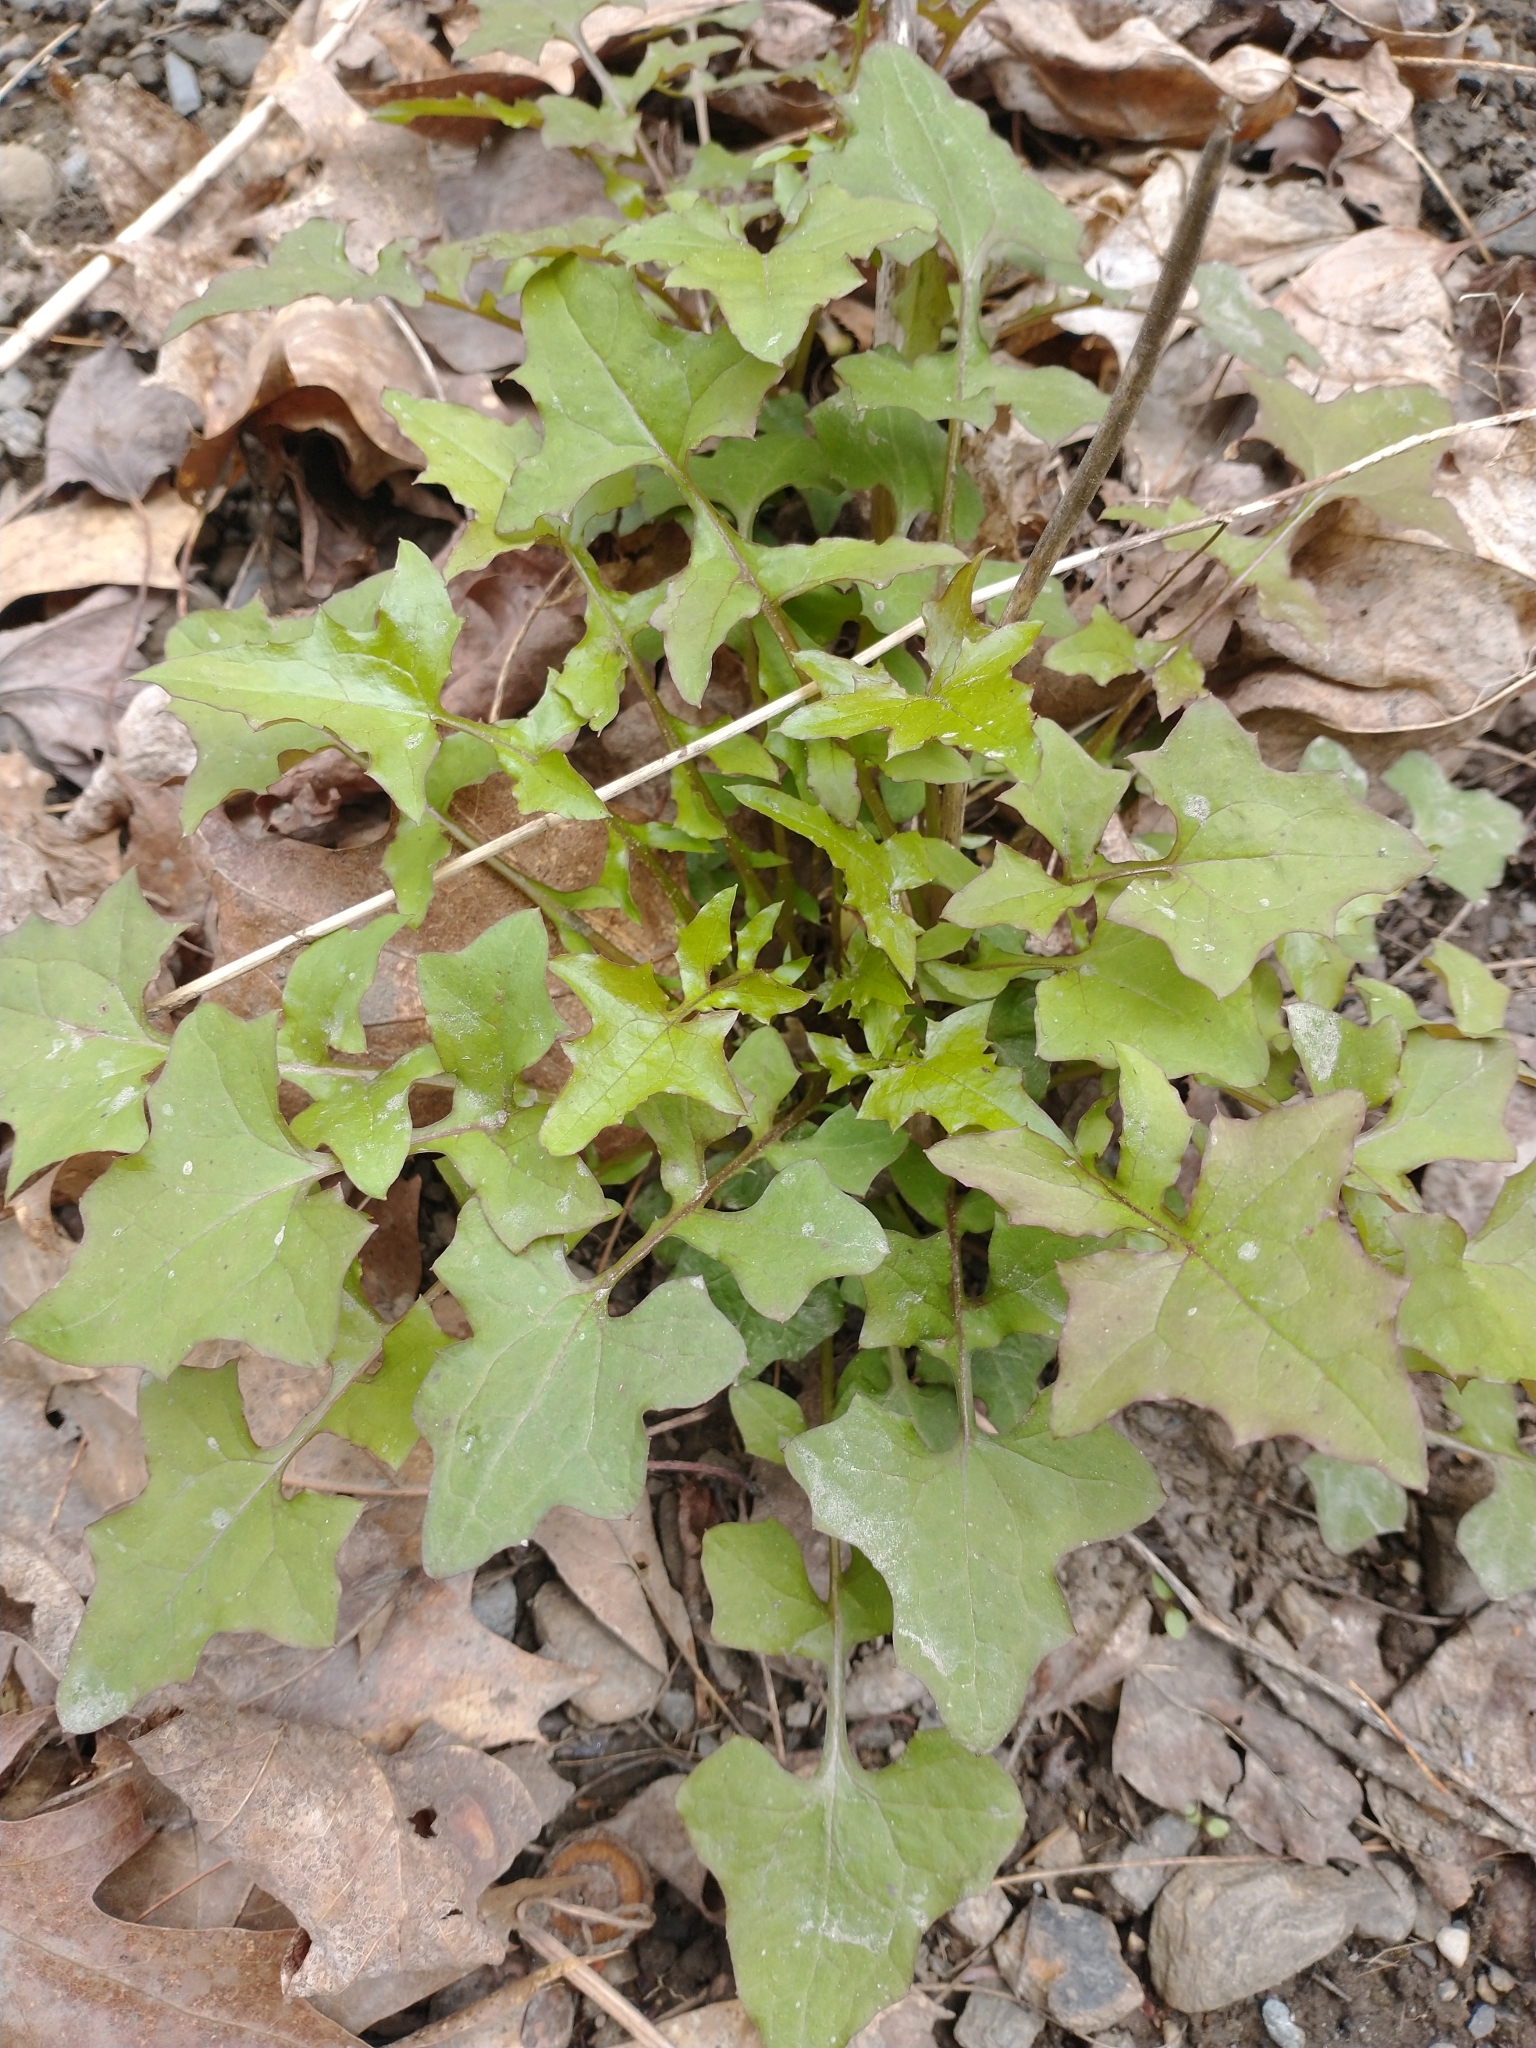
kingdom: Plantae
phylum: Tracheophyta
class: Magnoliopsida
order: Asterales
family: Asteraceae
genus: Mycelis
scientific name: Mycelis muralis
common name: Wall lettuce
